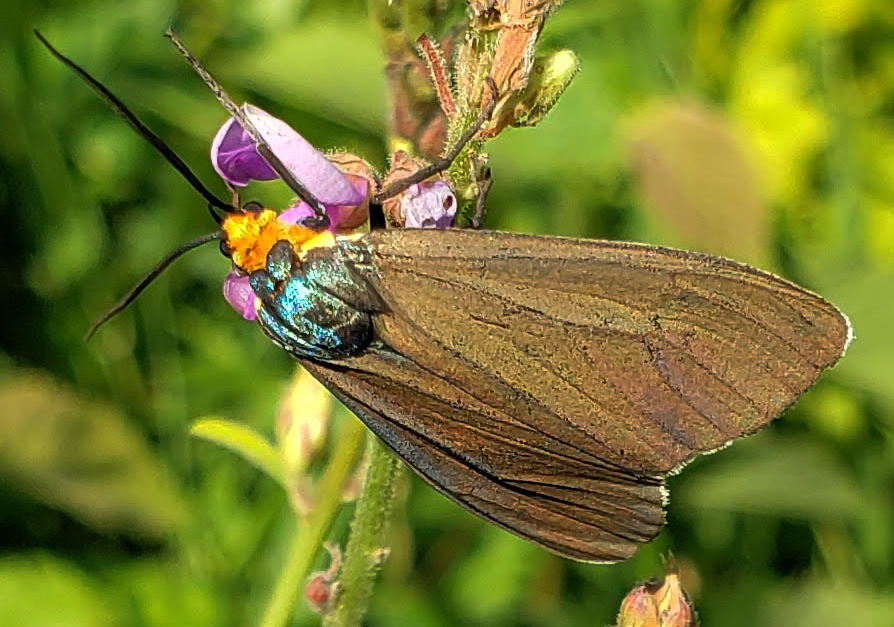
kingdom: Animalia
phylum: Arthropoda
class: Insecta
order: Lepidoptera
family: Erebidae
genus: Ctenucha
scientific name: Ctenucha virginica
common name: Virginia ctenucha moth
